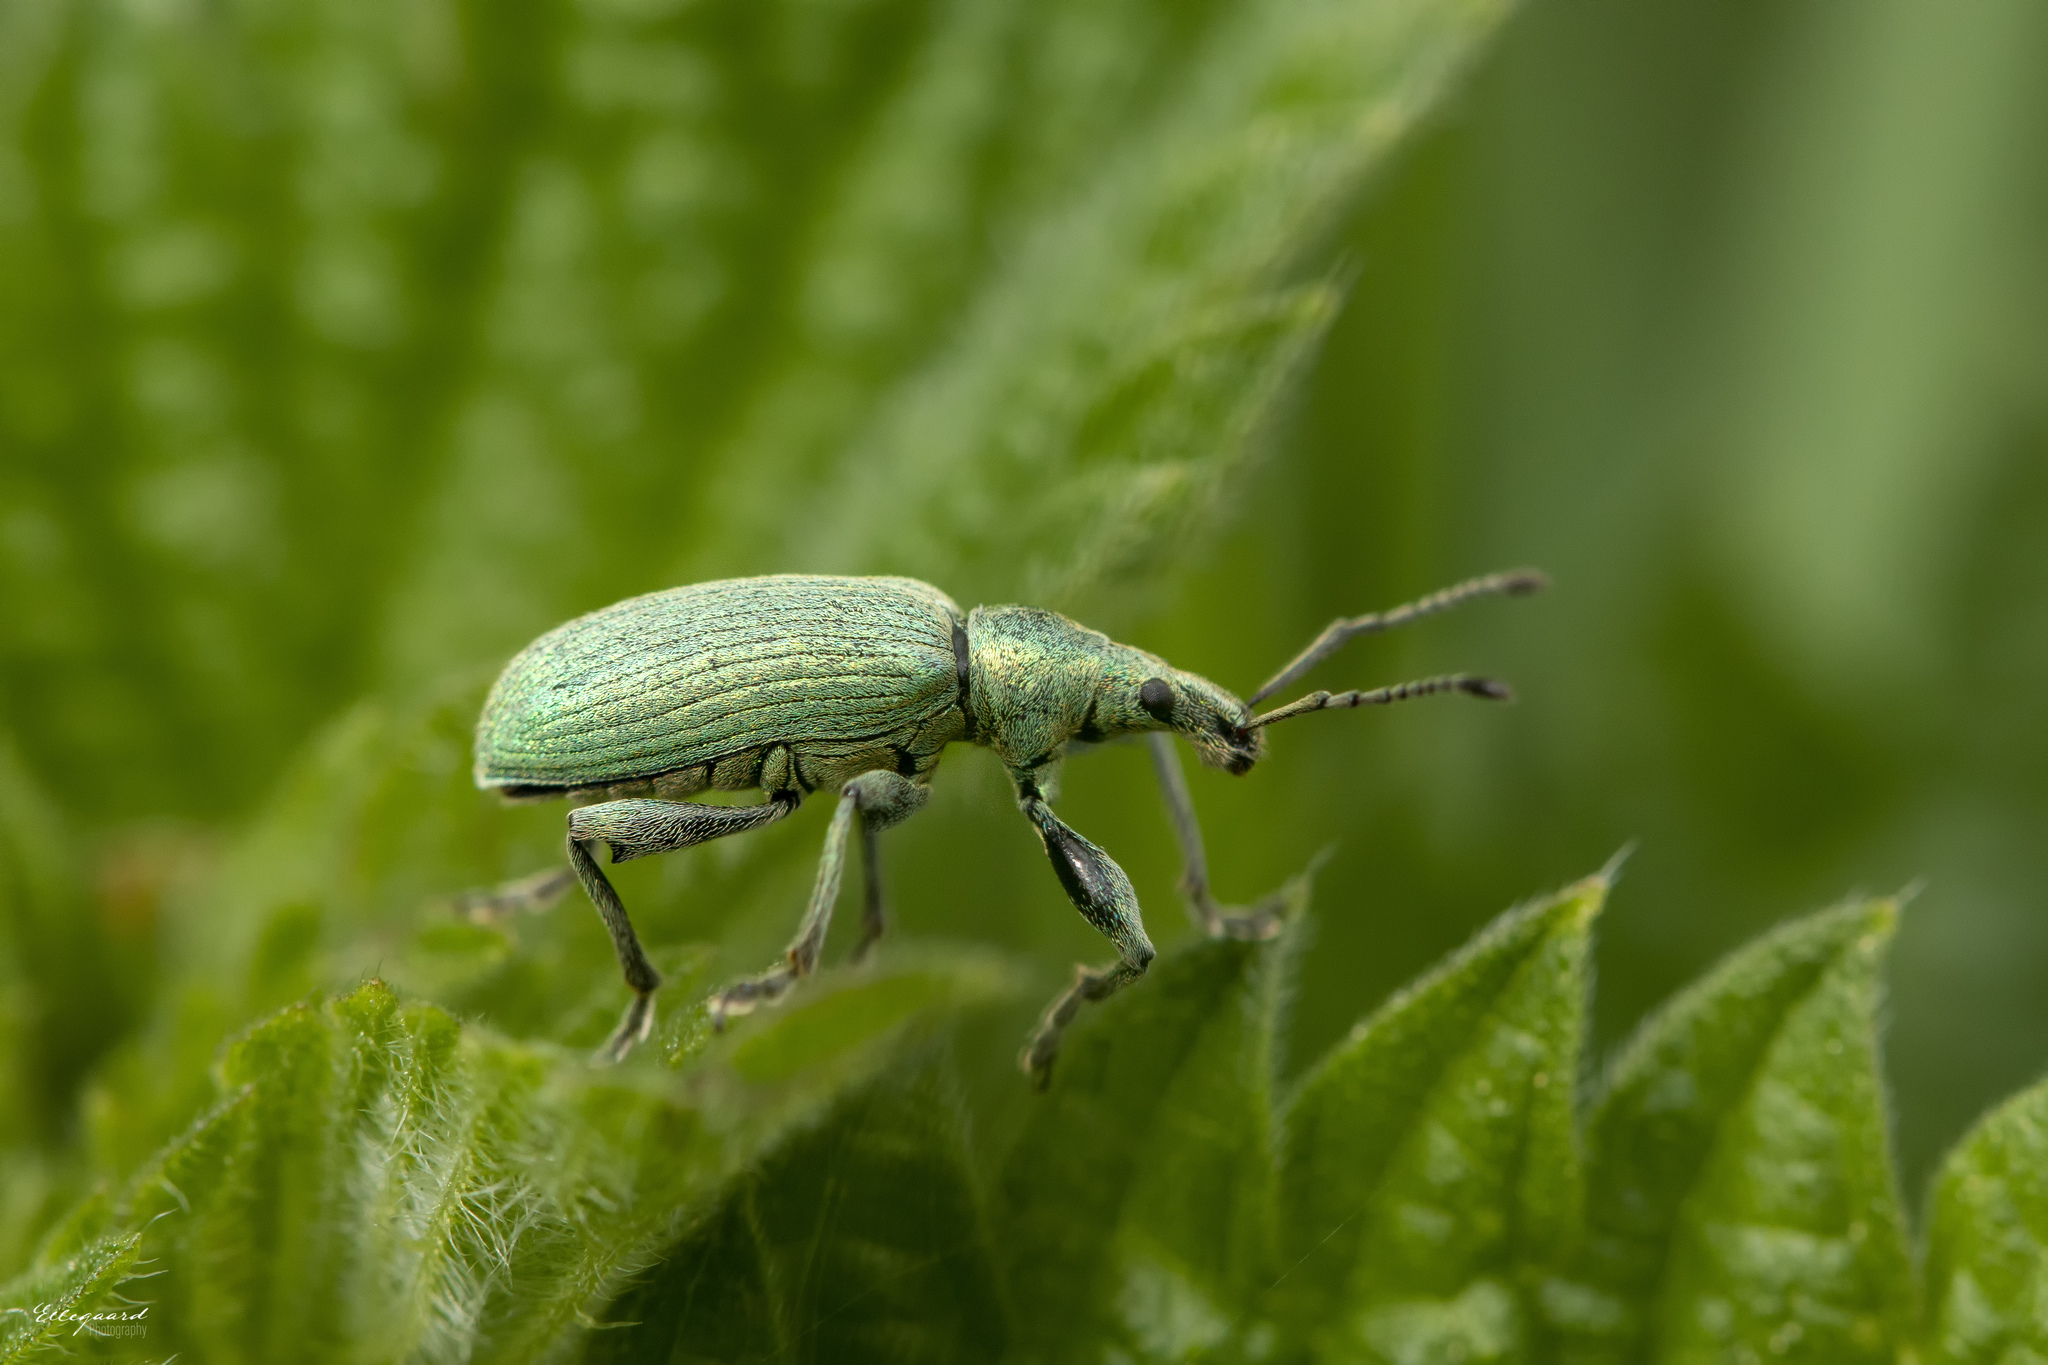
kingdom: Animalia
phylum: Arthropoda
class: Insecta
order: Coleoptera
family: Curculionidae
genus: Phyllobius
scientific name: Phyllobius pomaceus
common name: Green nettle weevil
